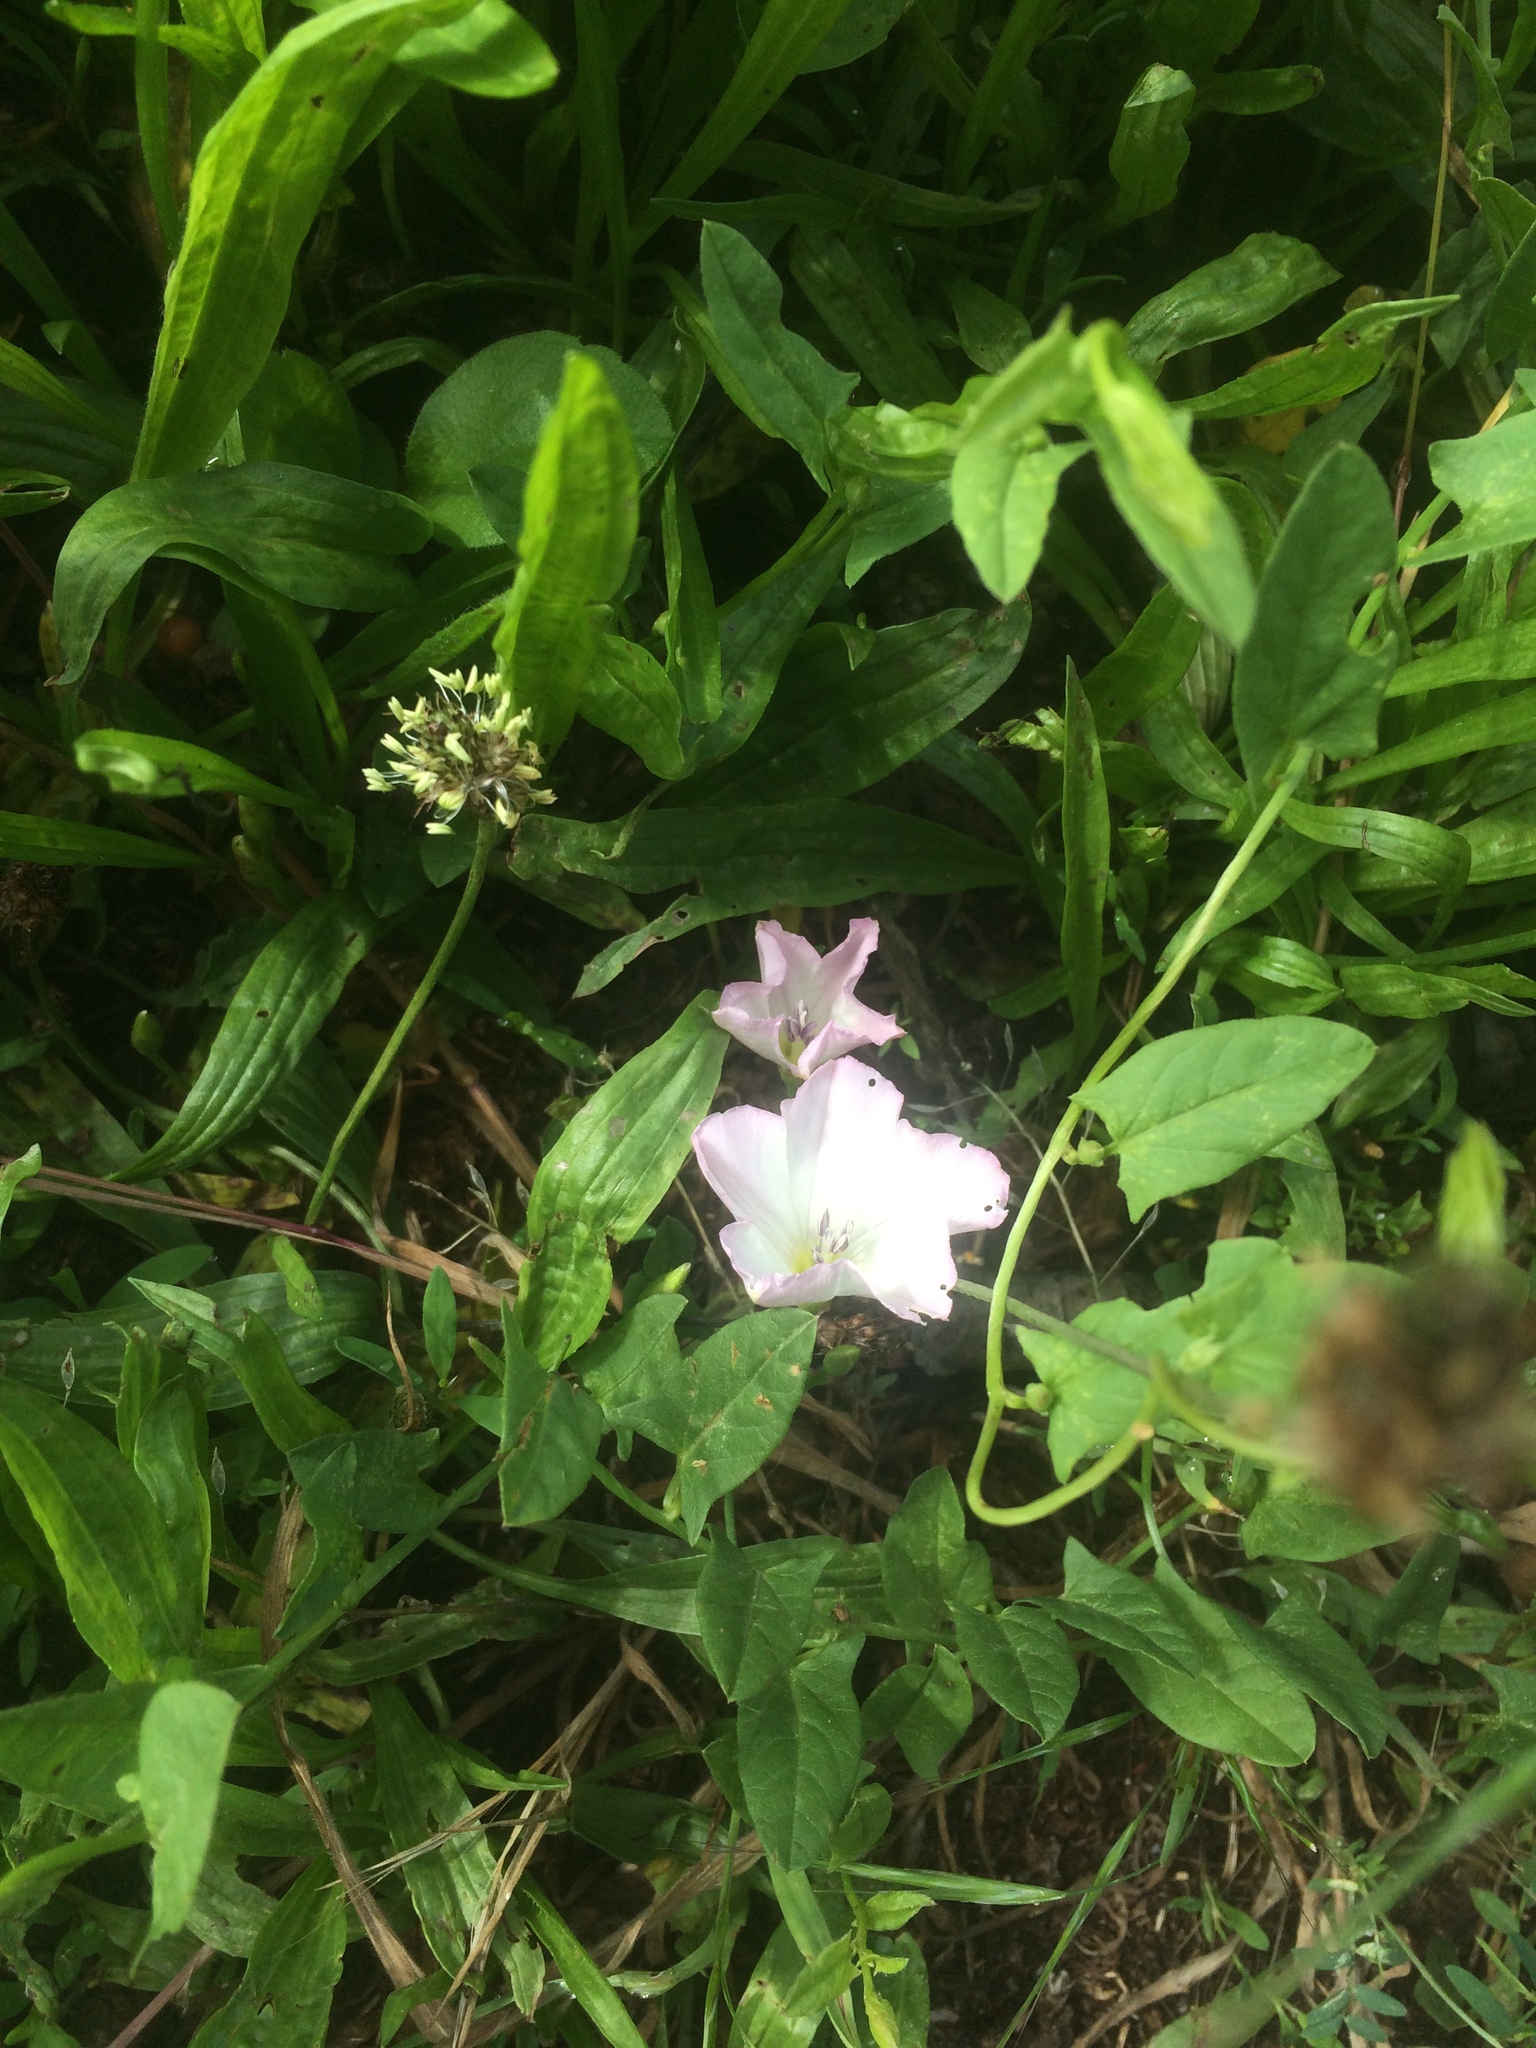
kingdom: Plantae
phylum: Tracheophyta
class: Magnoliopsida
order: Solanales
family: Convolvulaceae
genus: Convolvulus
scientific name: Convolvulus arvensis
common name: Field bindweed
